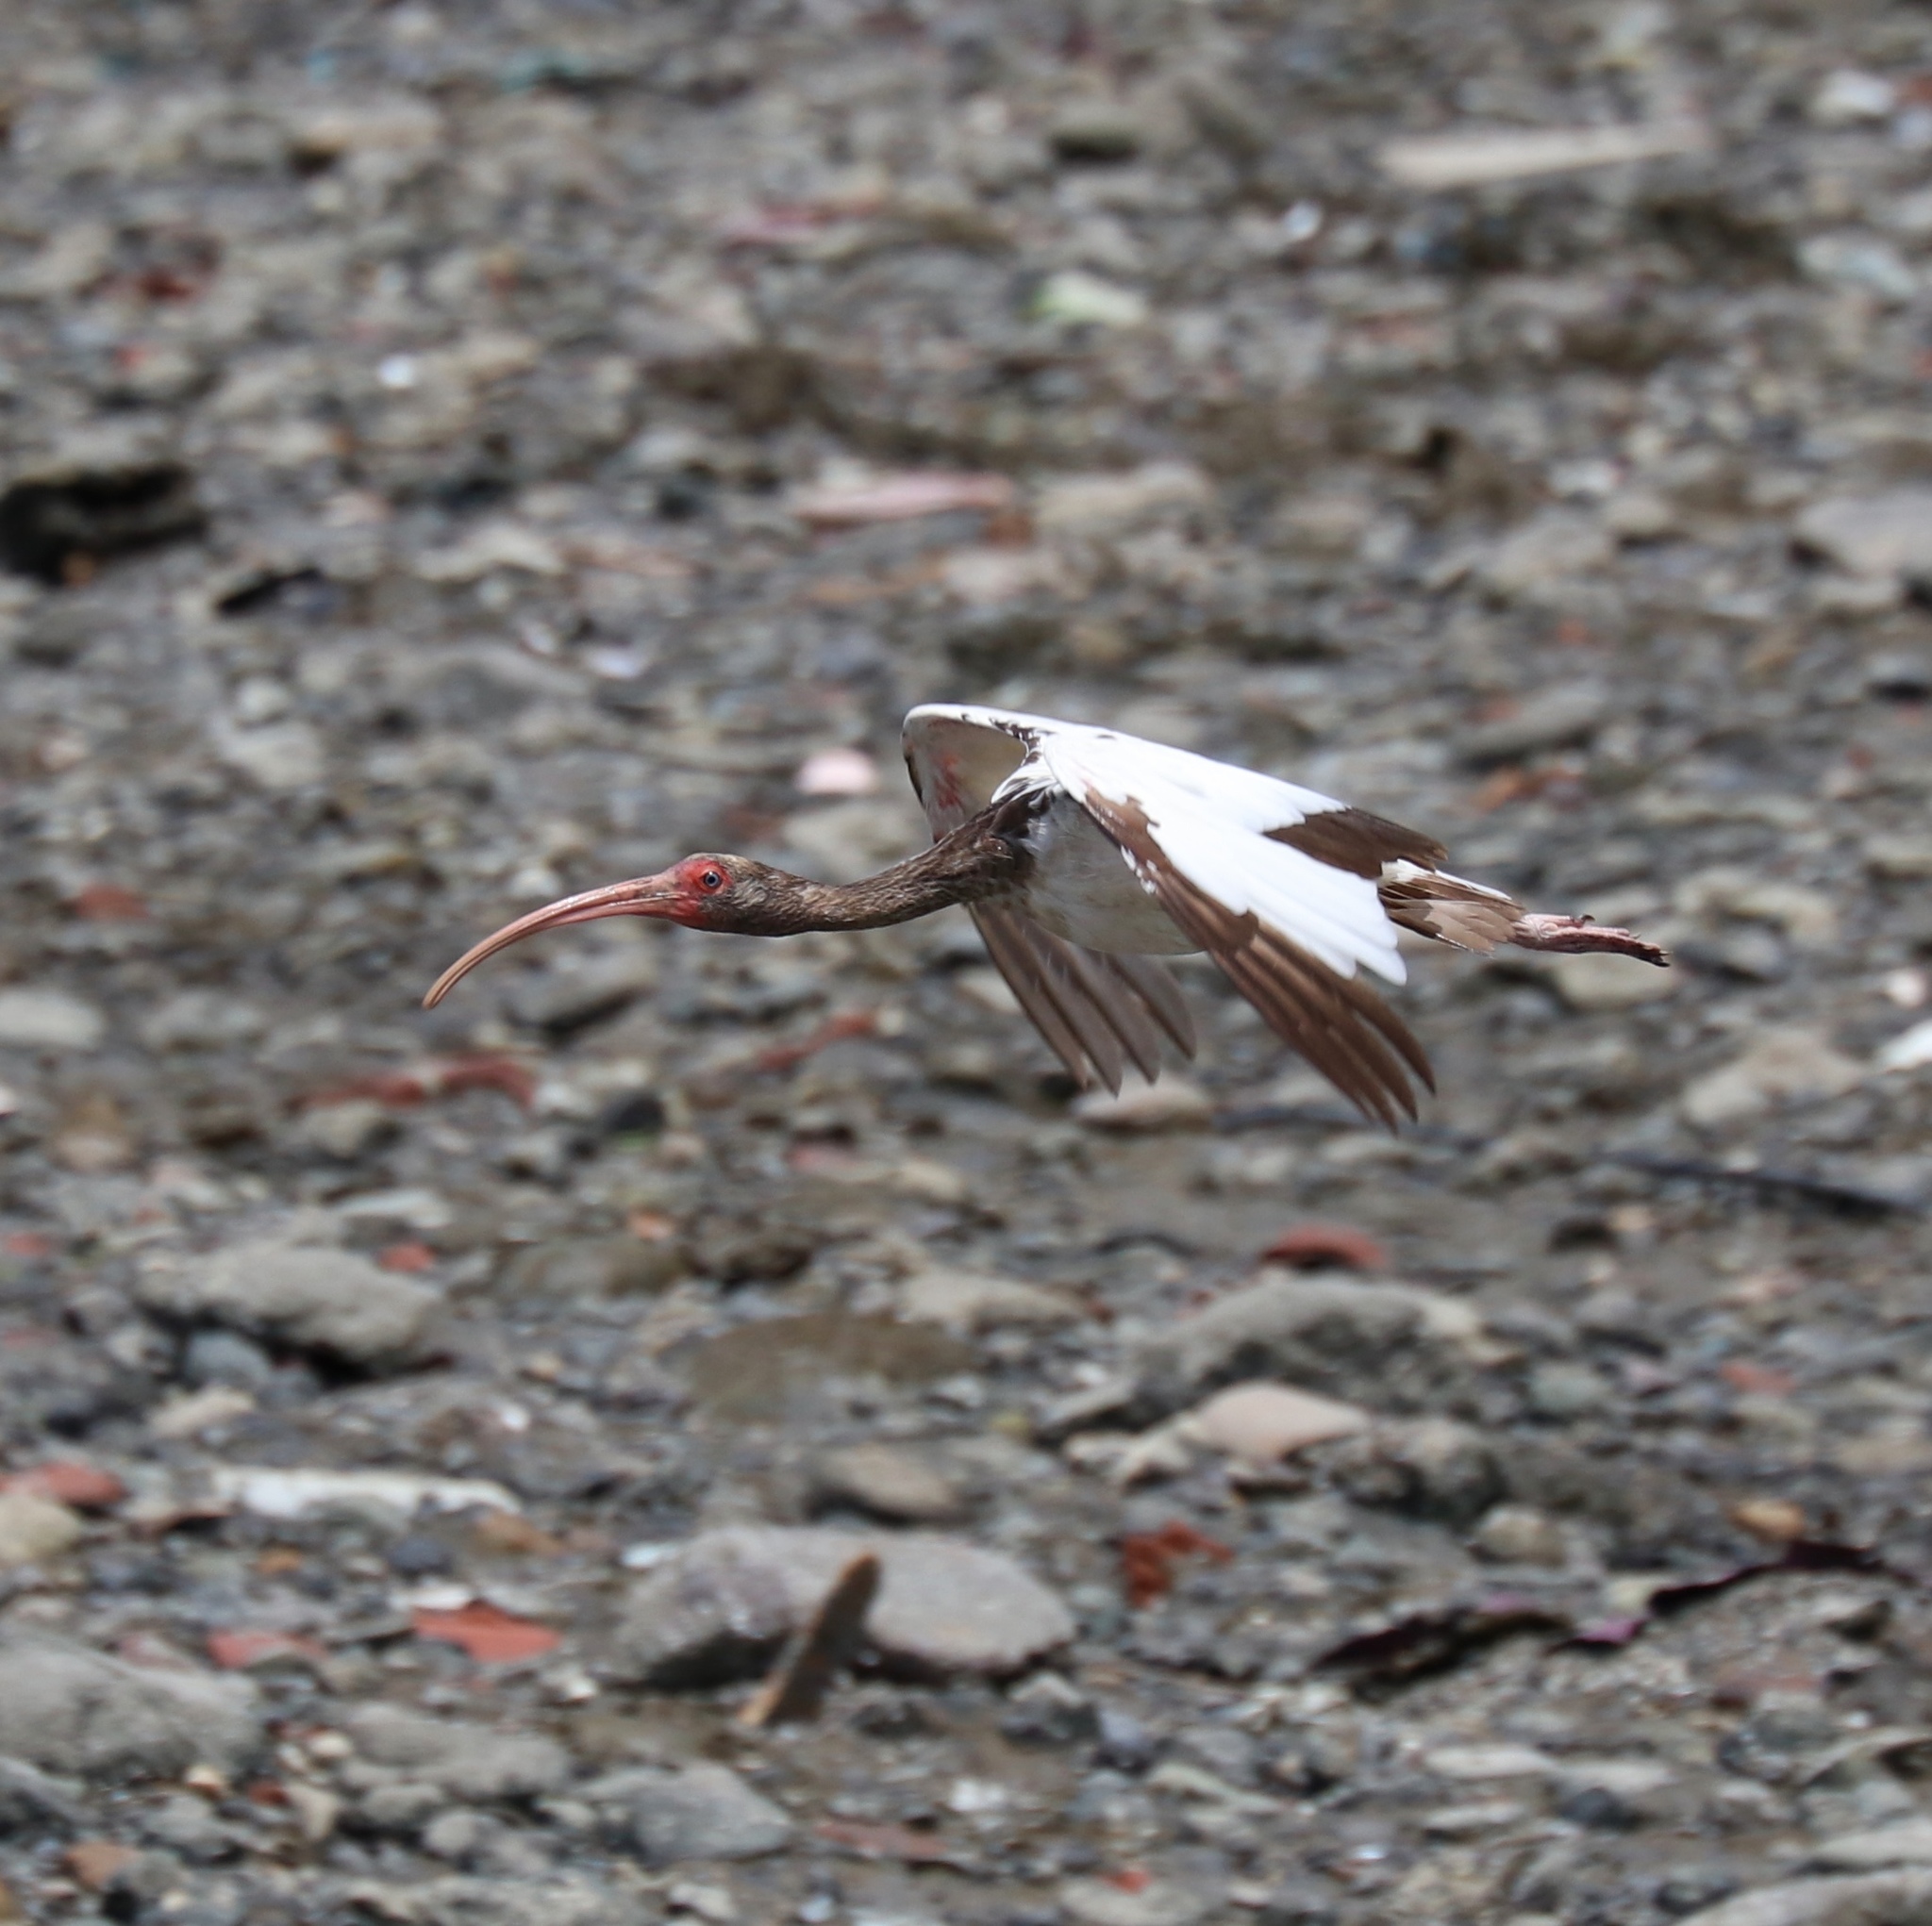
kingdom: Animalia
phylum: Chordata
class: Aves
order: Pelecaniformes
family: Threskiornithidae
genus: Eudocimus
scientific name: Eudocimus albus
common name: White ibis
